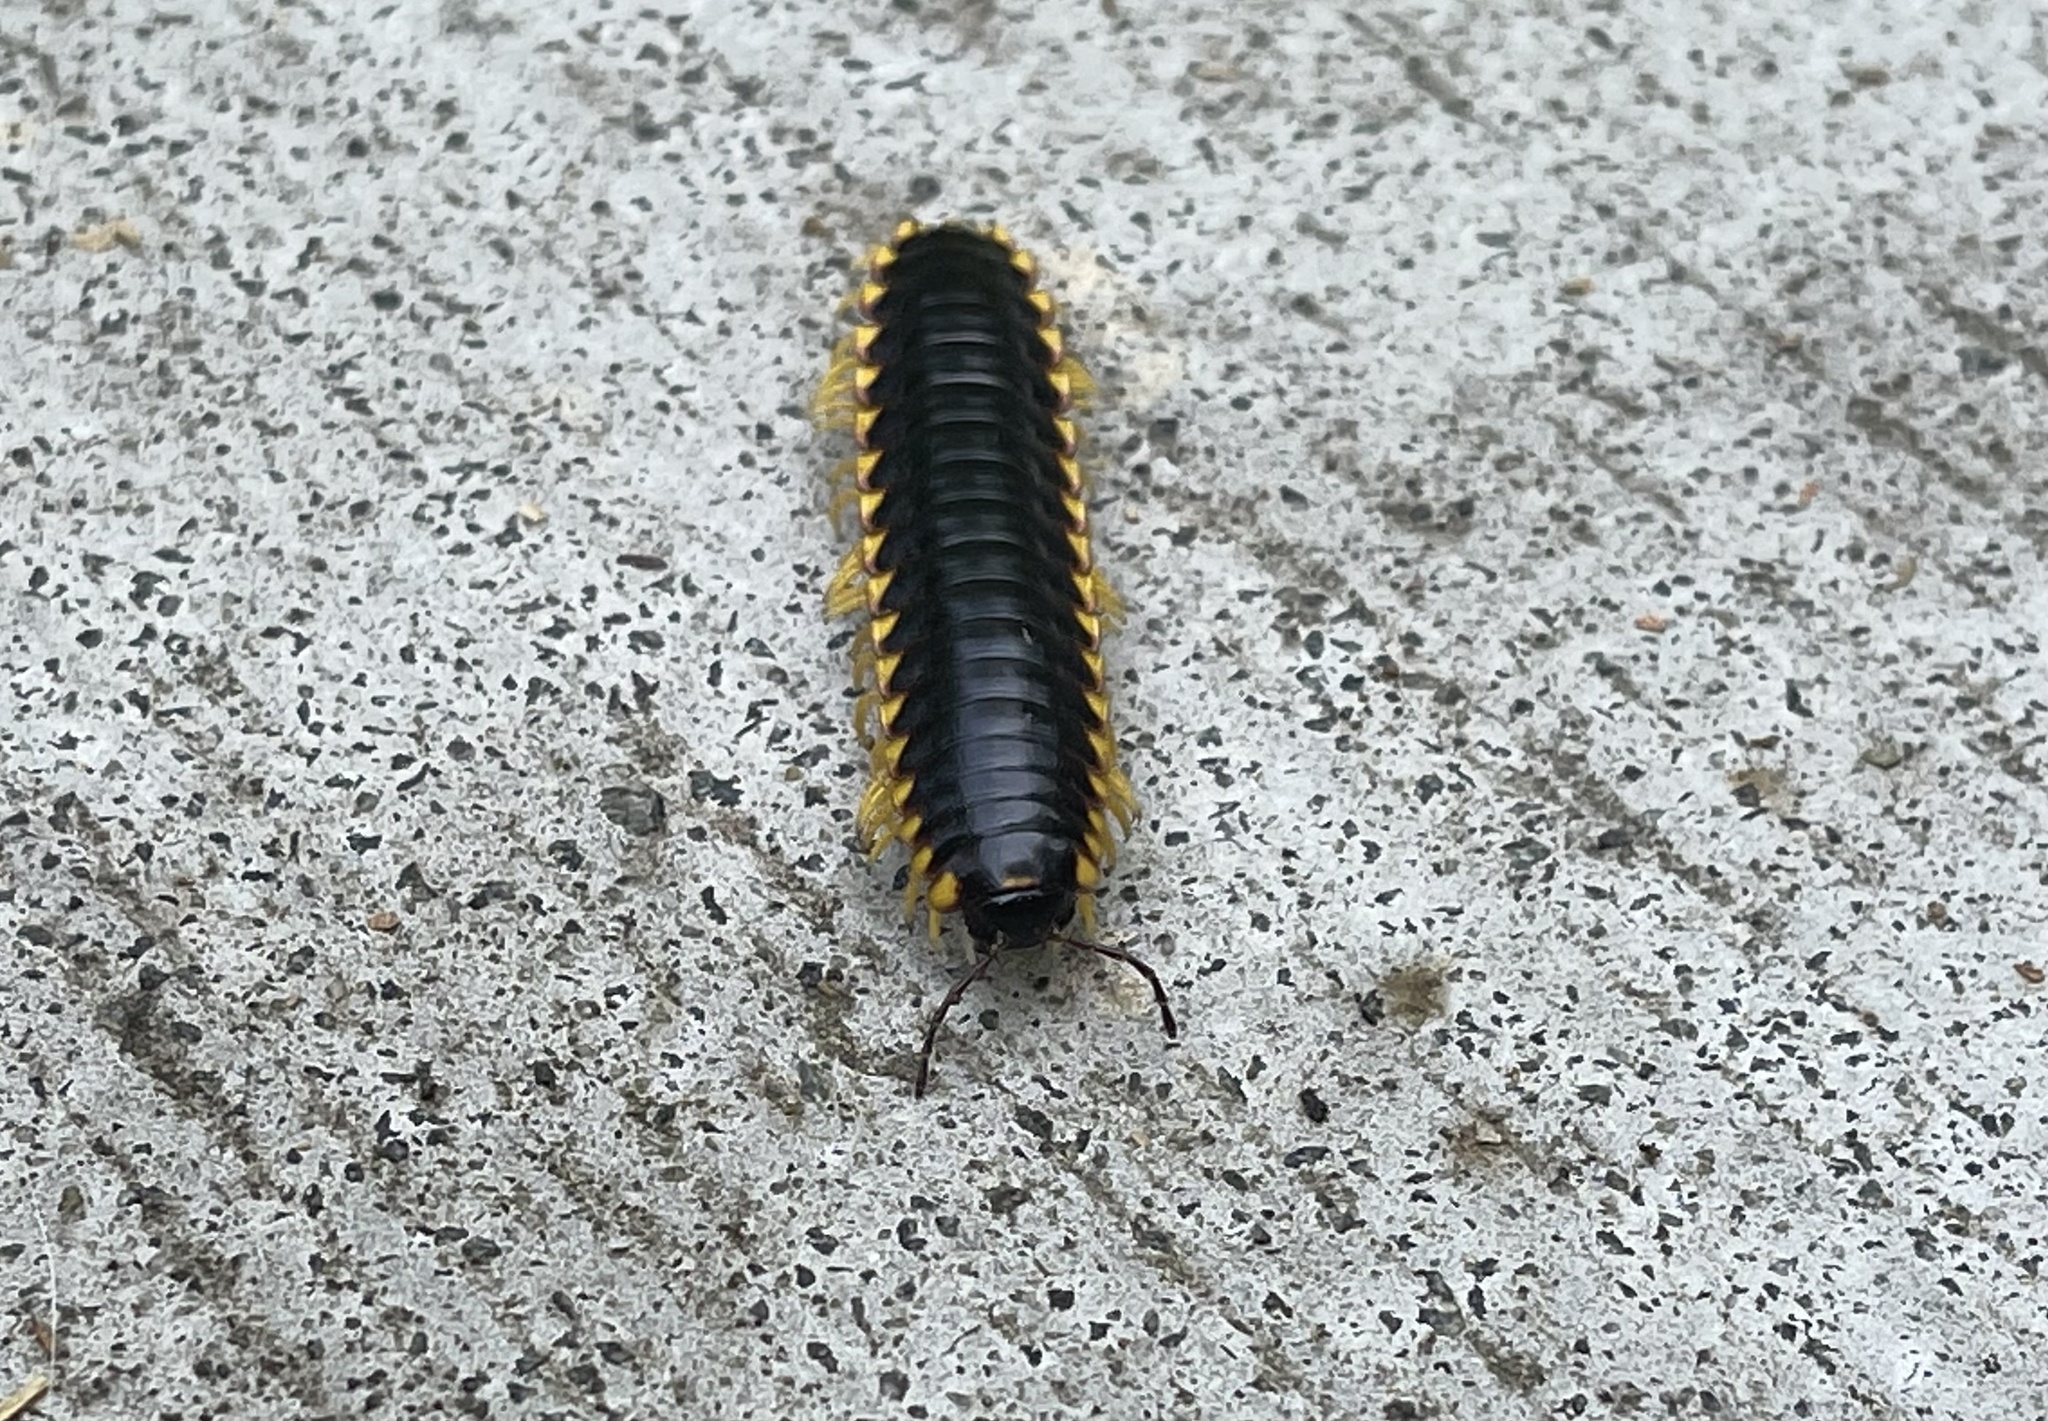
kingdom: Animalia
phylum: Arthropoda
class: Diplopoda
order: Polydesmida
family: Xystodesmidae
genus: Apheloria
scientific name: Apheloria tigana
